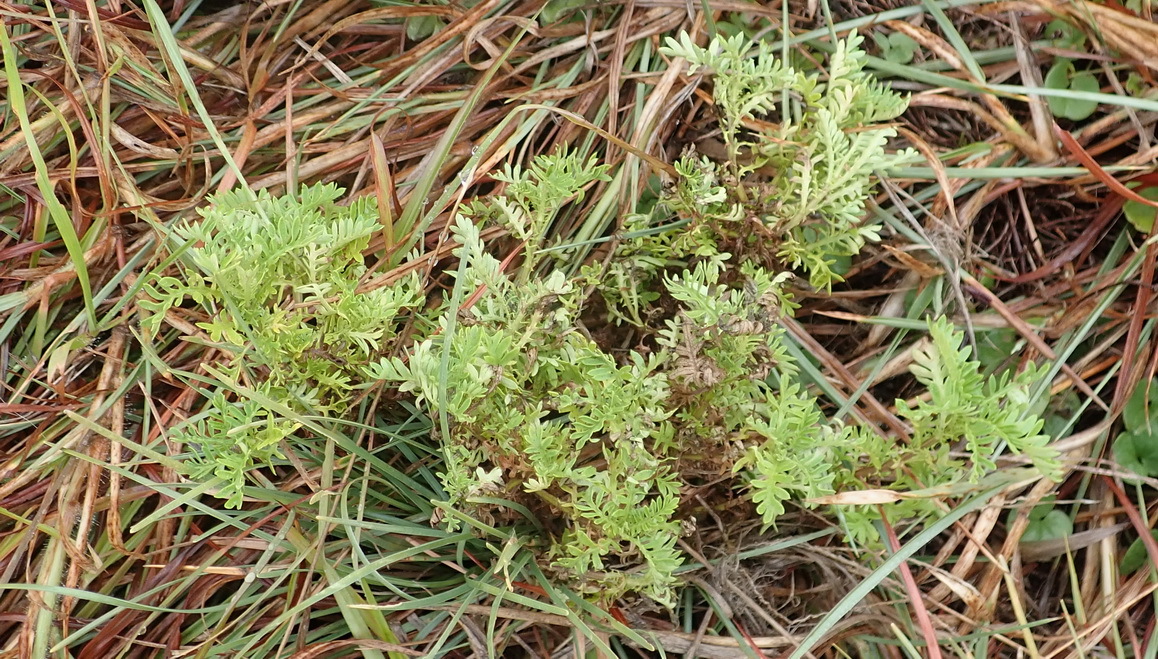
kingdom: Plantae
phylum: Tracheophyta
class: Magnoliopsida
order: Asterales
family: Asteraceae
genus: Hippia
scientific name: Hippia frutescens
